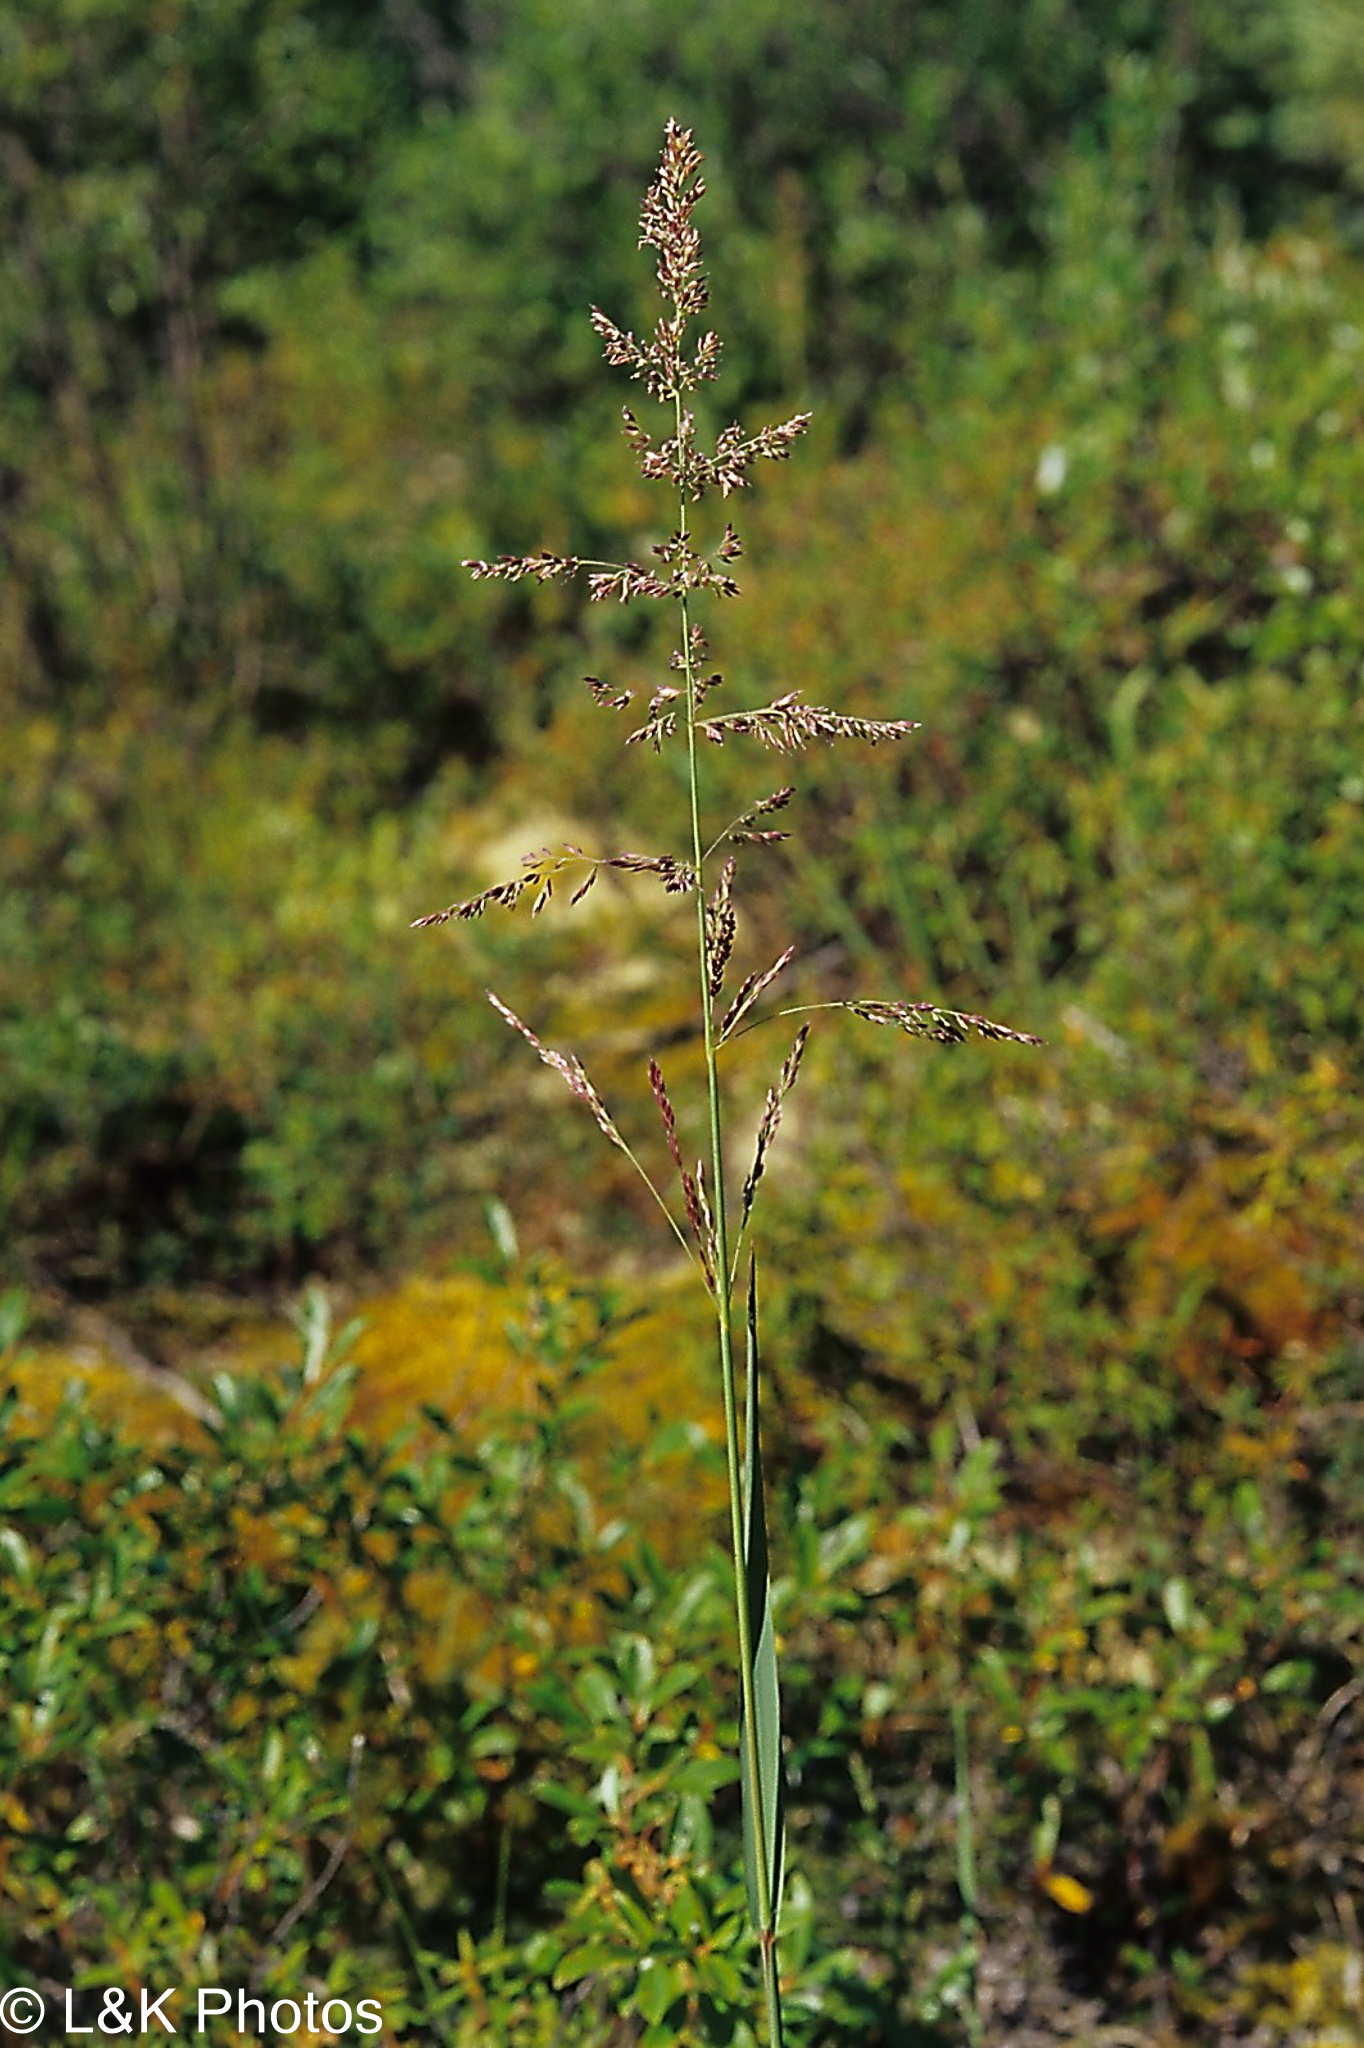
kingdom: Plantae
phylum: Tracheophyta
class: Liliopsida
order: Poales
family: Poaceae
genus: Arctagrostis
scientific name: Arctagrostis arundinacea
